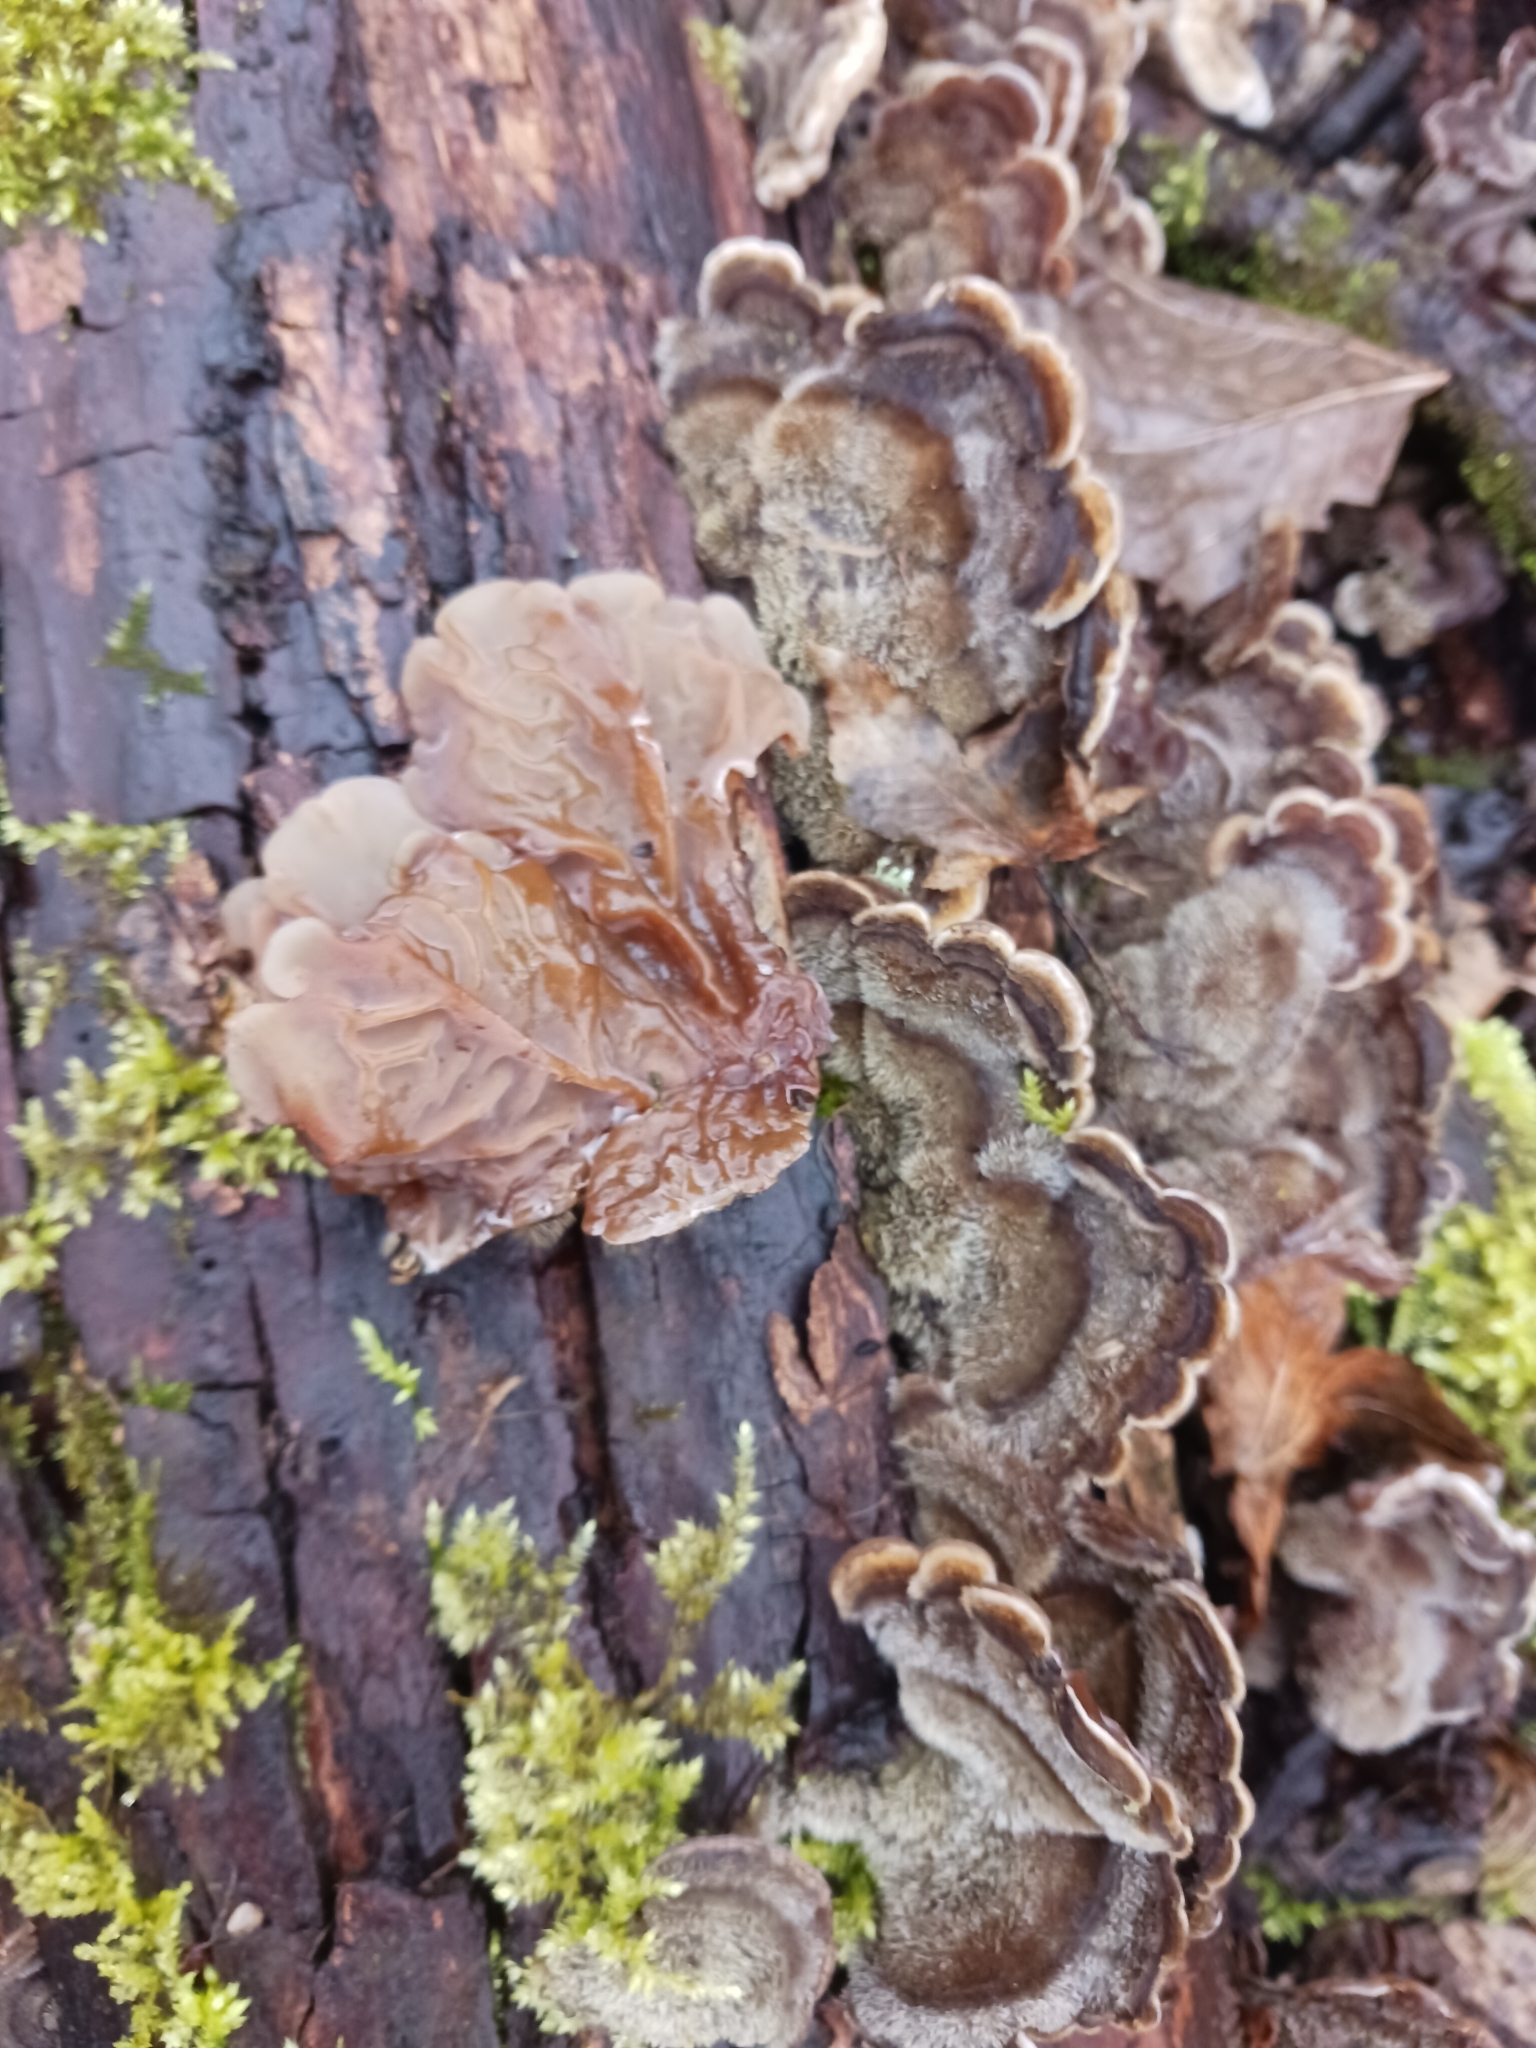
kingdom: Fungi
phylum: Basidiomycota
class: Agaricomycetes
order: Auriculariales
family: Auriculariaceae
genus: Auricularia
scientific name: Auricularia mesenterica
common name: Tripe fungus
